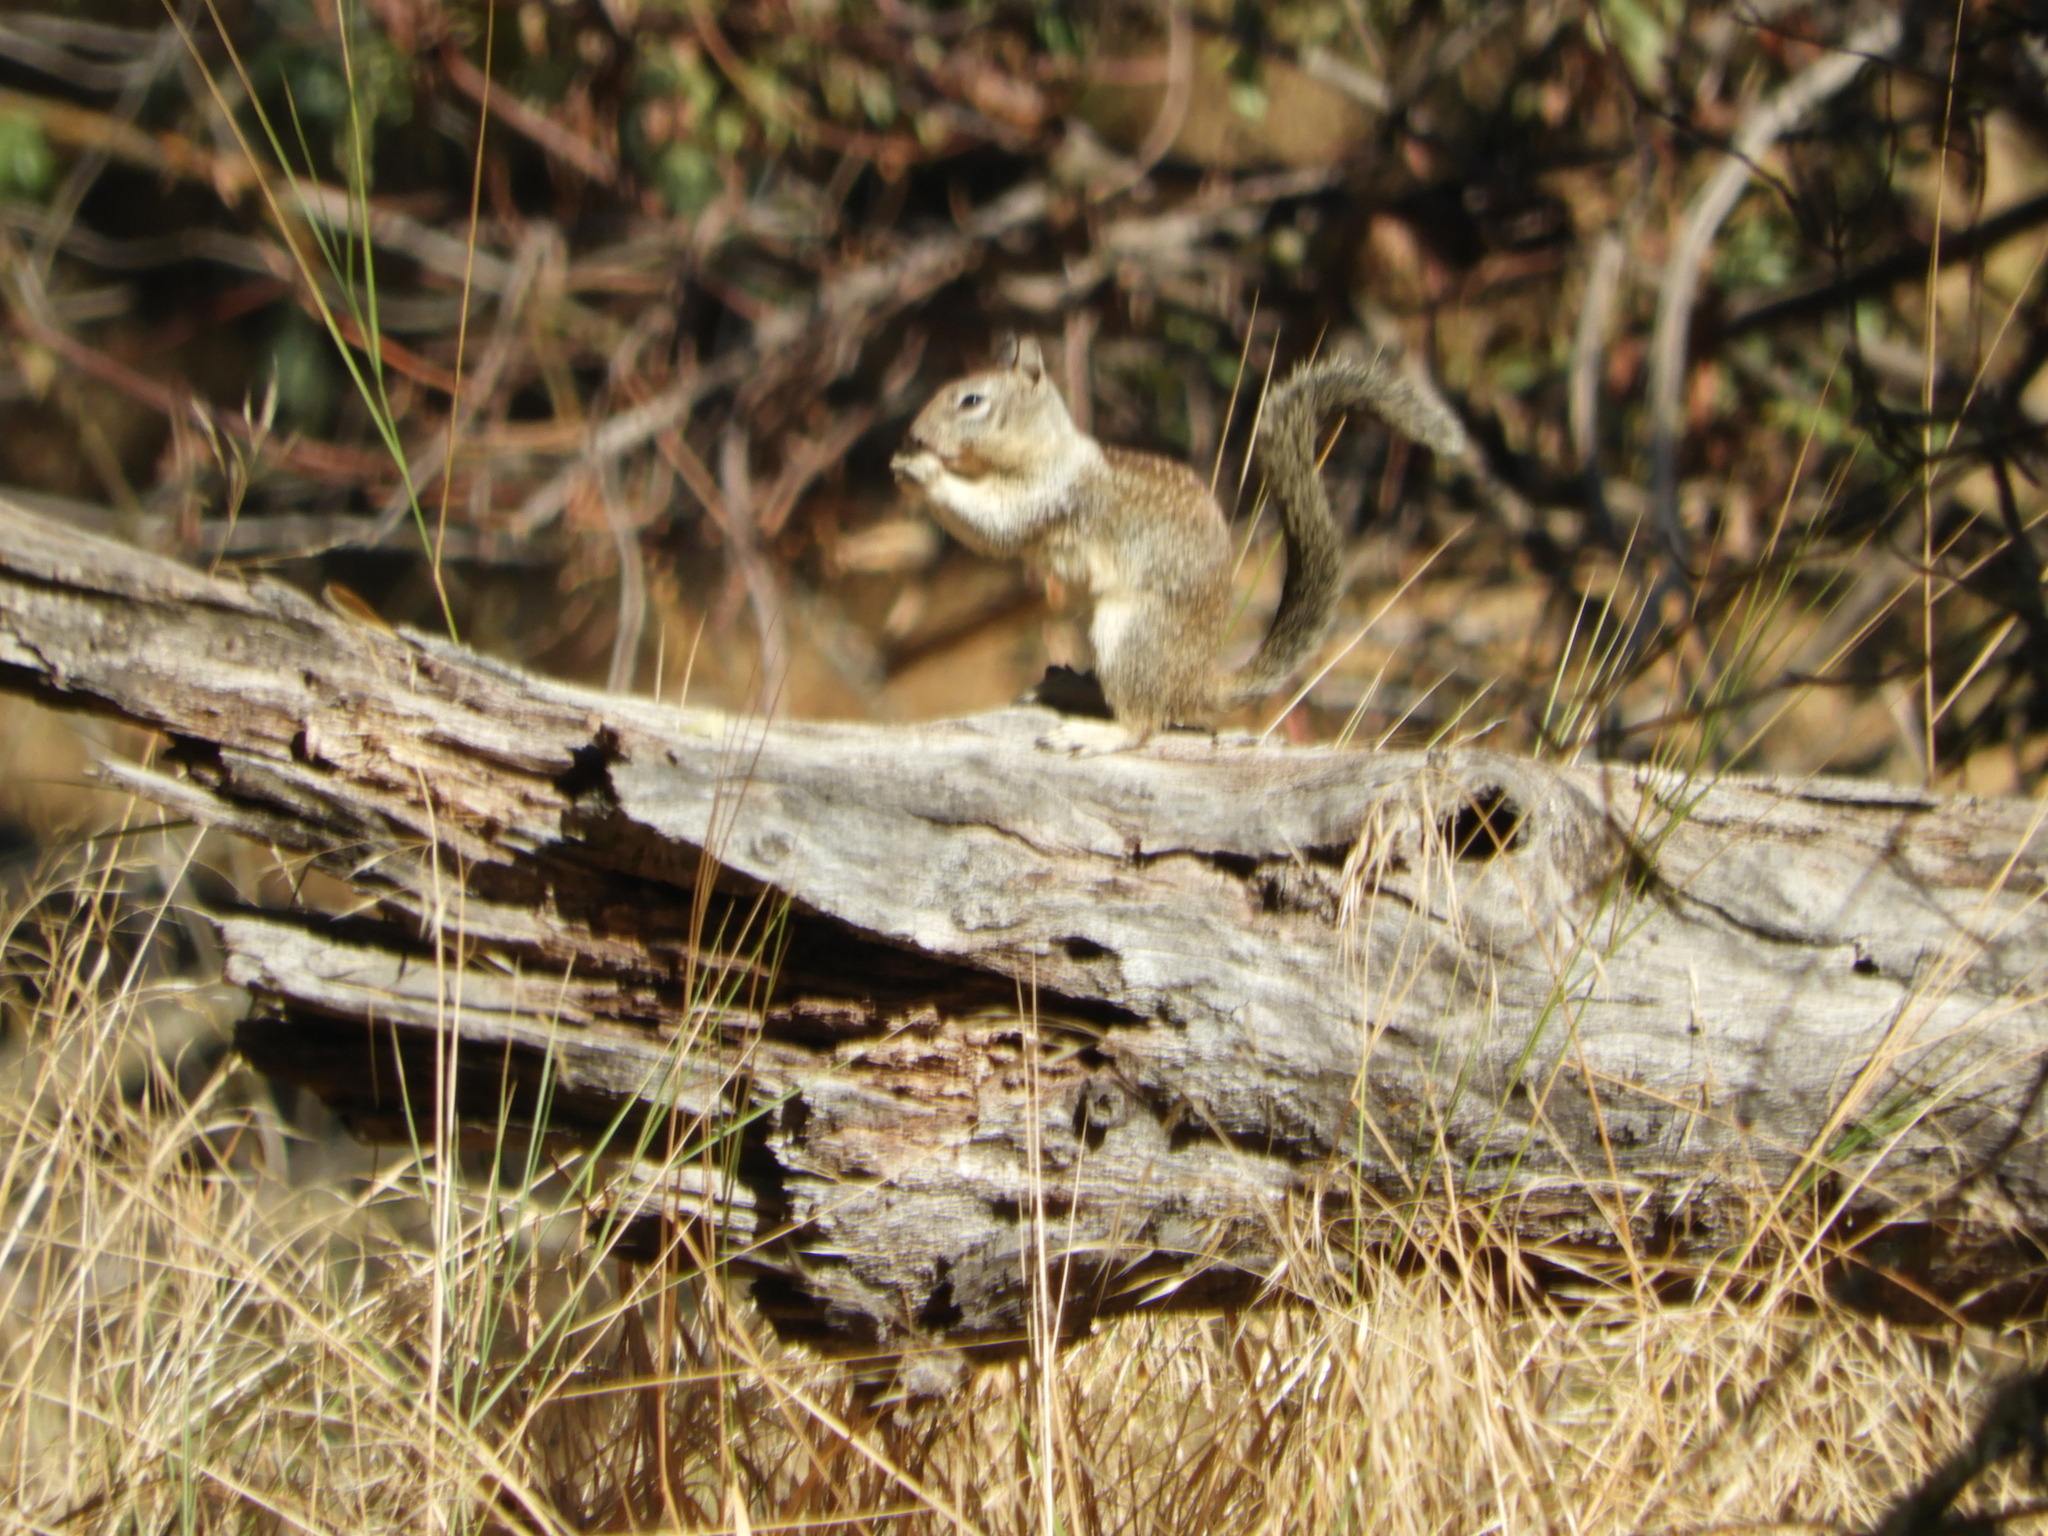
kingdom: Animalia
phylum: Chordata
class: Mammalia
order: Rodentia
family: Sciuridae
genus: Otospermophilus
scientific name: Otospermophilus beecheyi
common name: California ground squirrel
